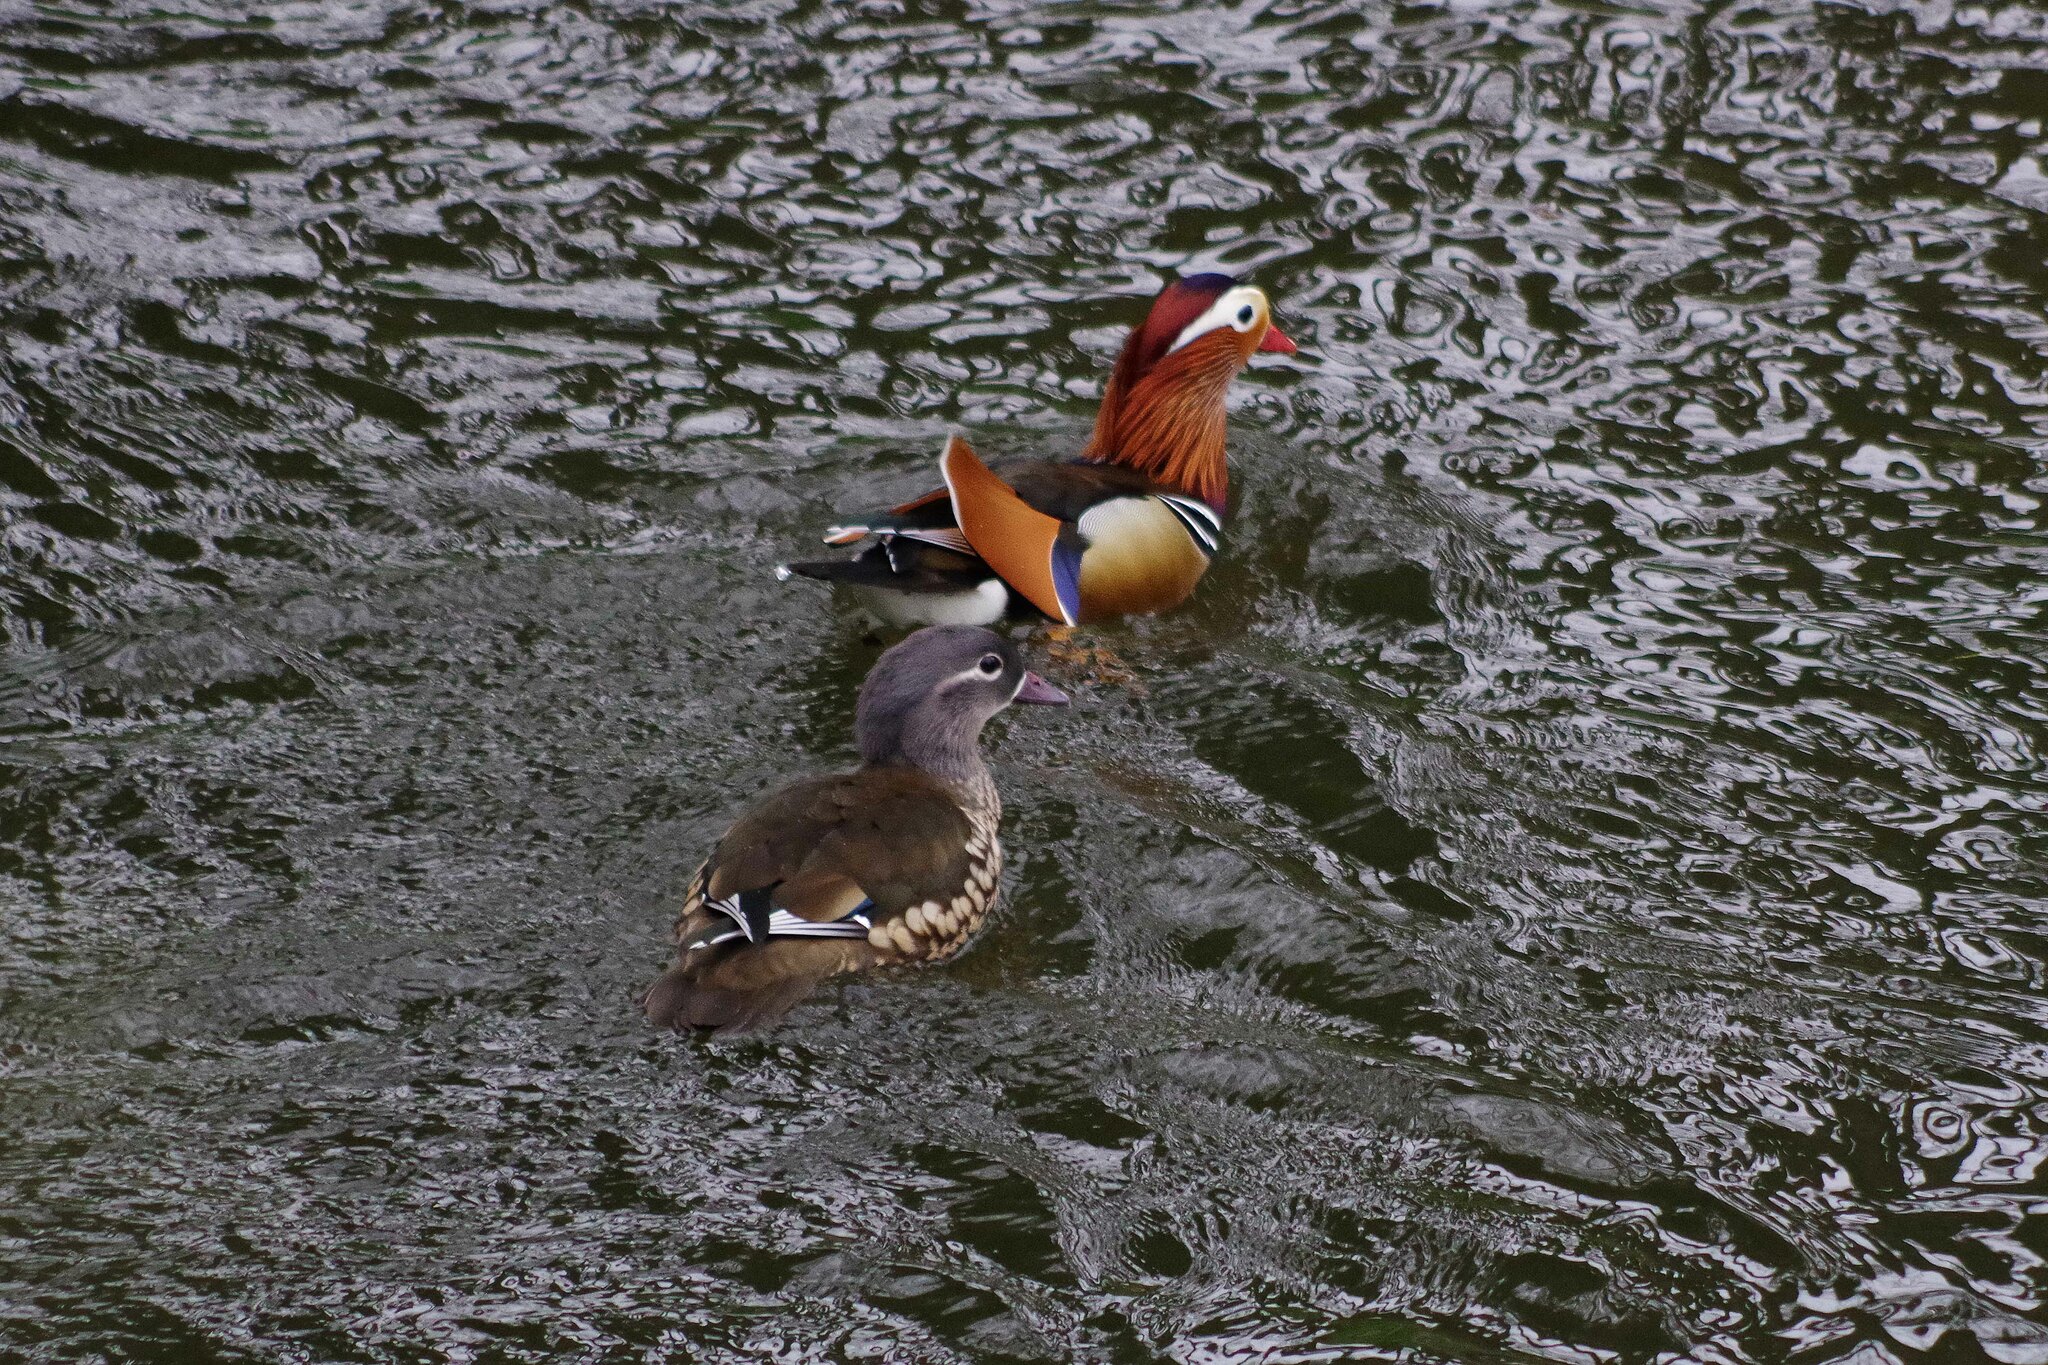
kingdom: Animalia
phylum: Chordata
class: Aves
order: Anseriformes
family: Anatidae
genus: Aix
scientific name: Aix galericulata
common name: Mandarin duck
